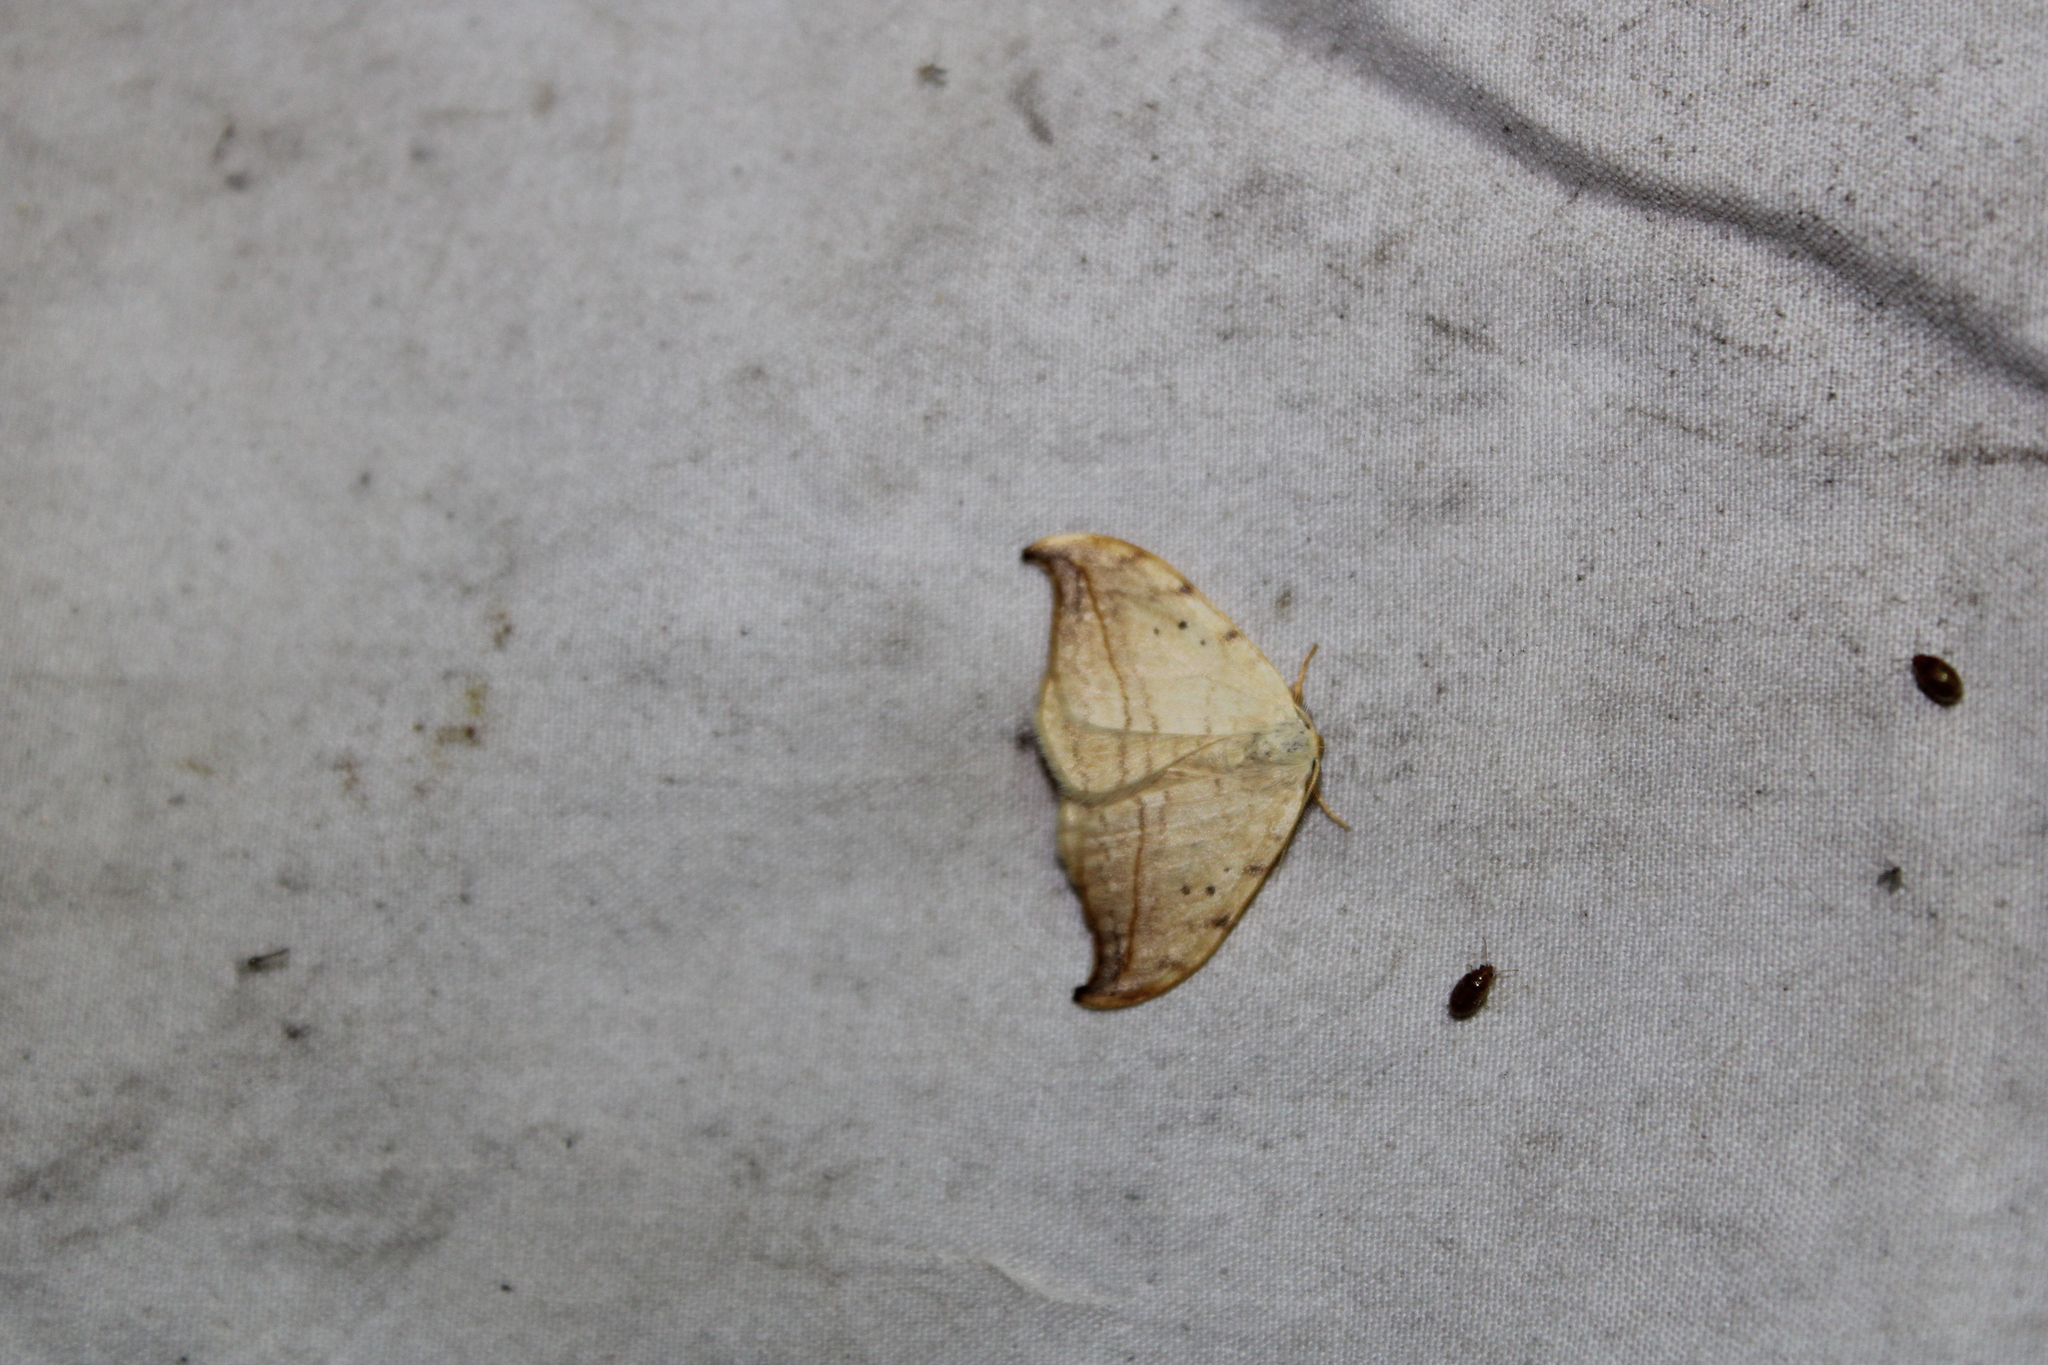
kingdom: Animalia
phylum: Arthropoda
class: Insecta
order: Lepidoptera
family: Drepanidae
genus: Drepana
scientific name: Drepana arcuata
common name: Arched hooktip moth
